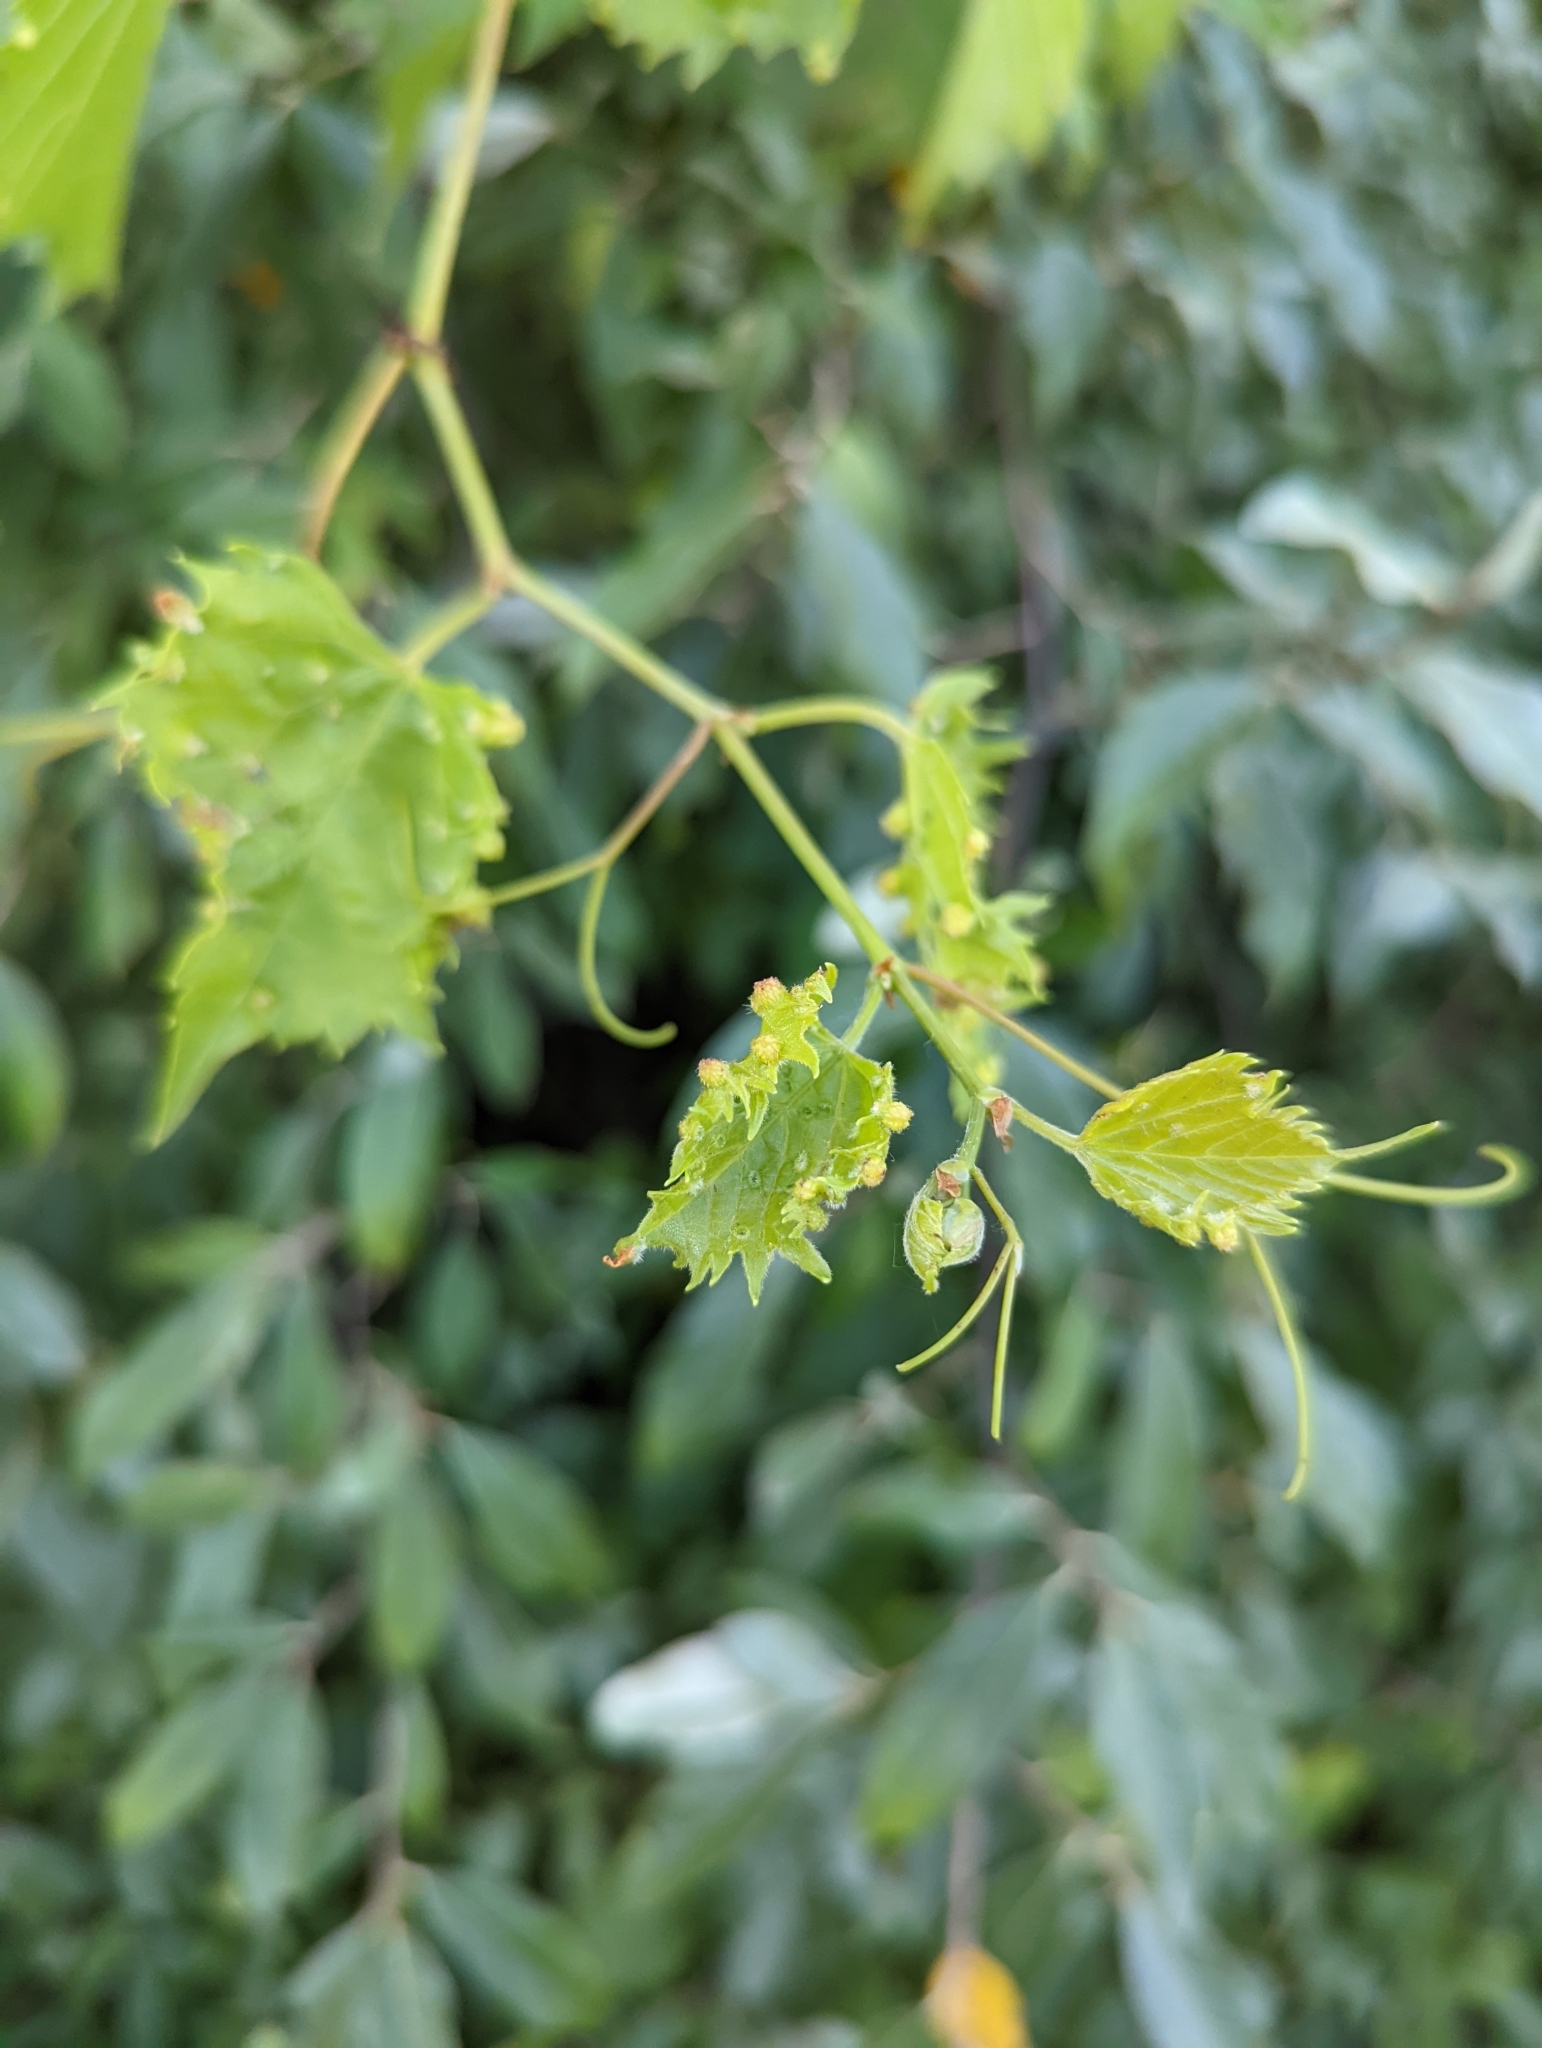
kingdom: Animalia
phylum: Arthropoda
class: Insecta
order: Hemiptera
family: Phylloxeridae
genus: Daktulosphaira
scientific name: Daktulosphaira vitifoliae
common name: Grape phylloxera
